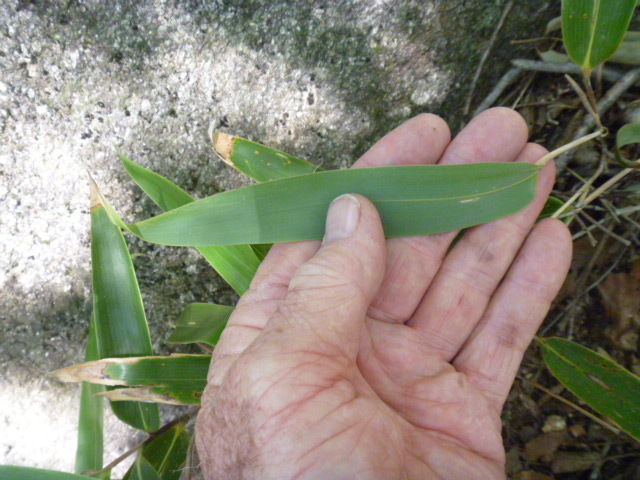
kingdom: Plantae
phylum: Tracheophyta
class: Liliopsida
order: Poales
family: Poaceae
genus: Sasamorpha
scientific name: Sasamorpha borealis
